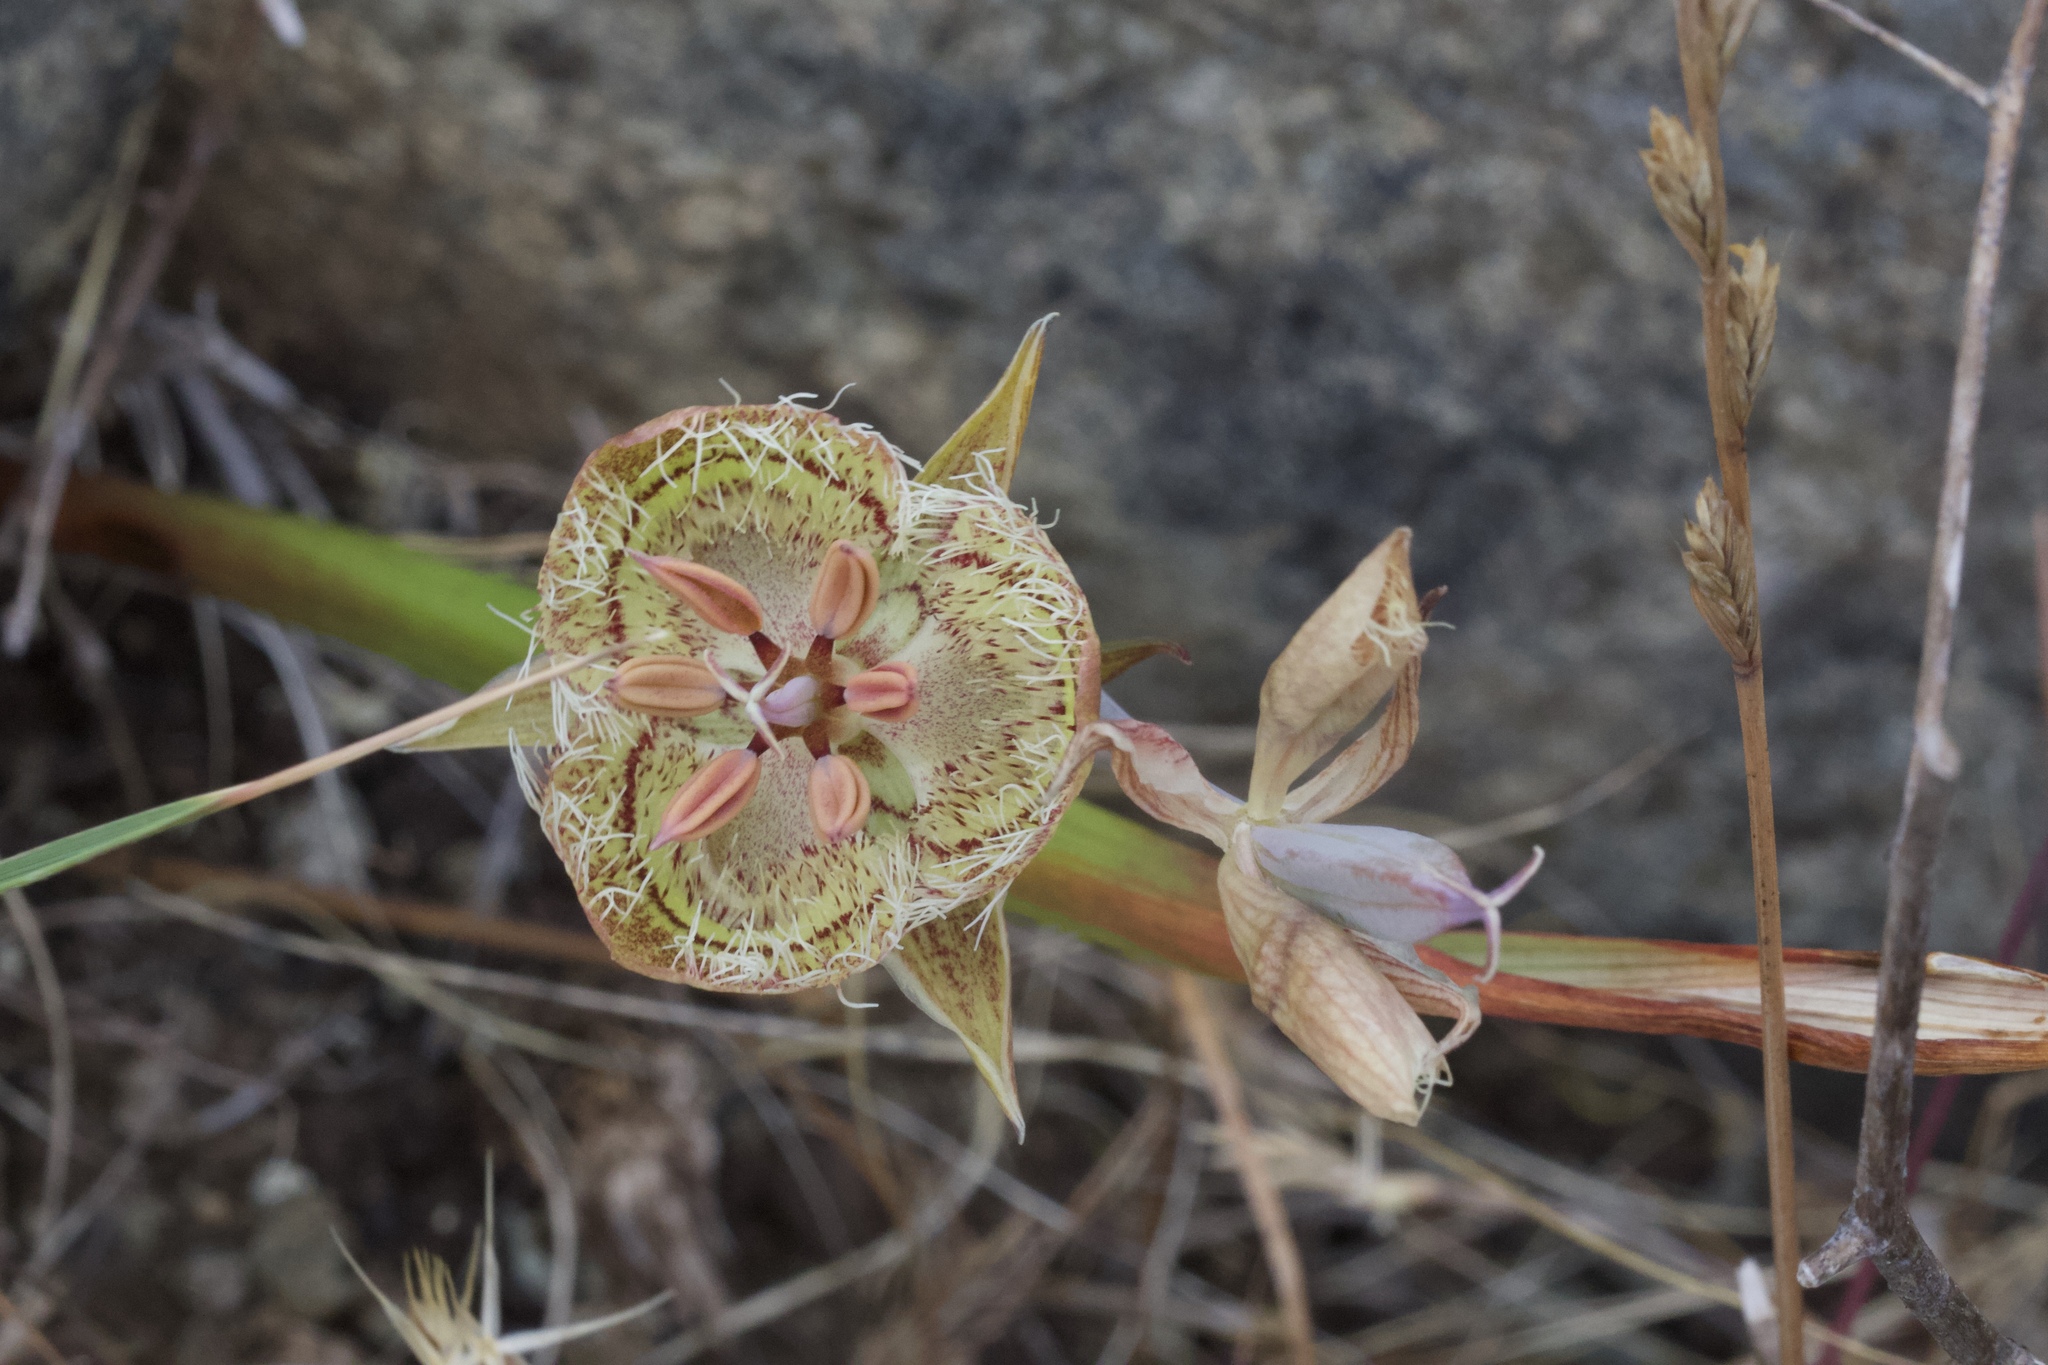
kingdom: Plantae
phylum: Tracheophyta
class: Liliopsida
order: Liliales
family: Liliaceae
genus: Calochortus
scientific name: Calochortus tiburonensis
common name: Tiburon mariposa-lily
